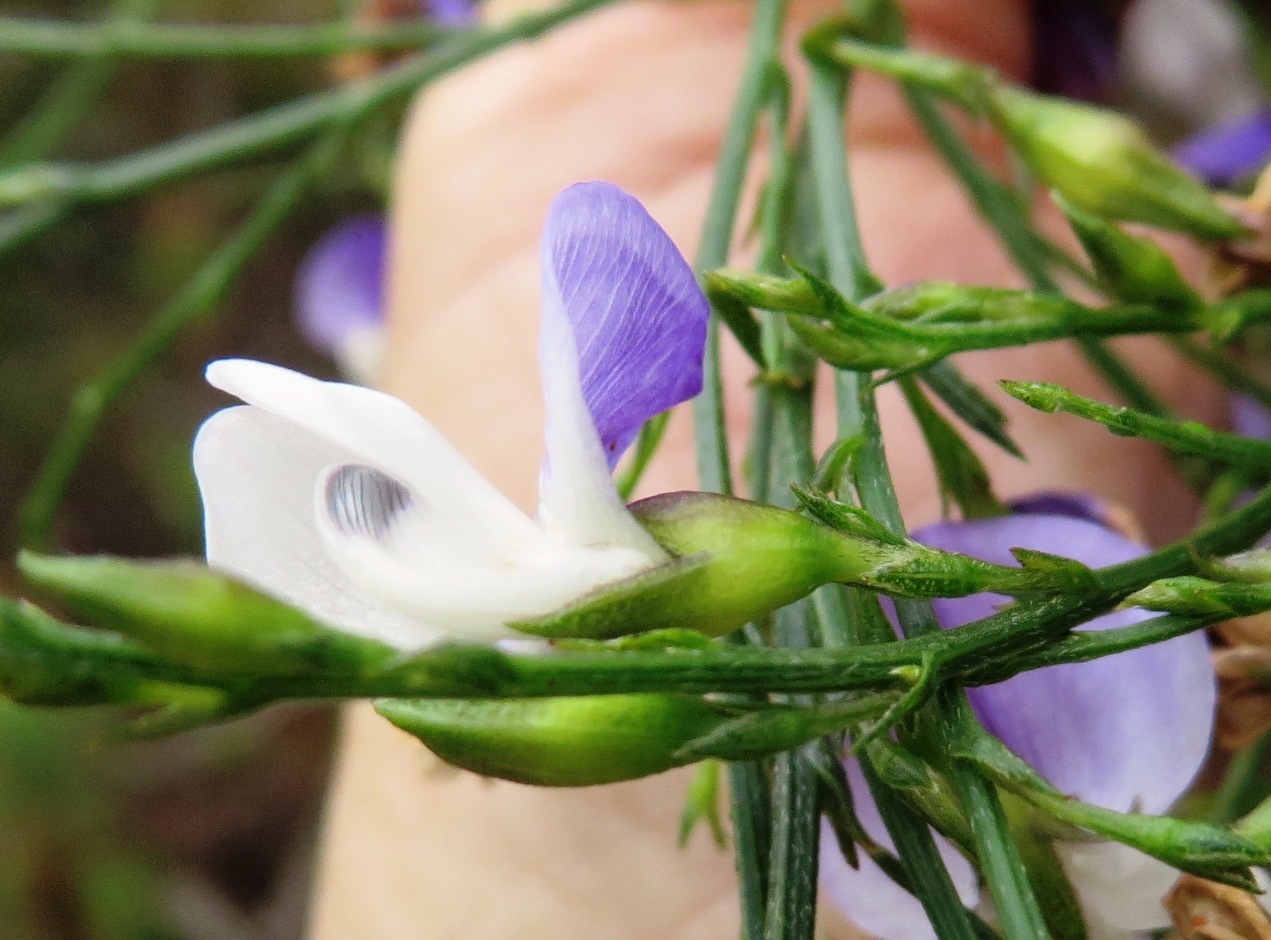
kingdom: Plantae
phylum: Tracheophyta
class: Magnoliopsida
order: Fabales
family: Fabaceae
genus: Psoralea
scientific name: Psoralea aphylla
